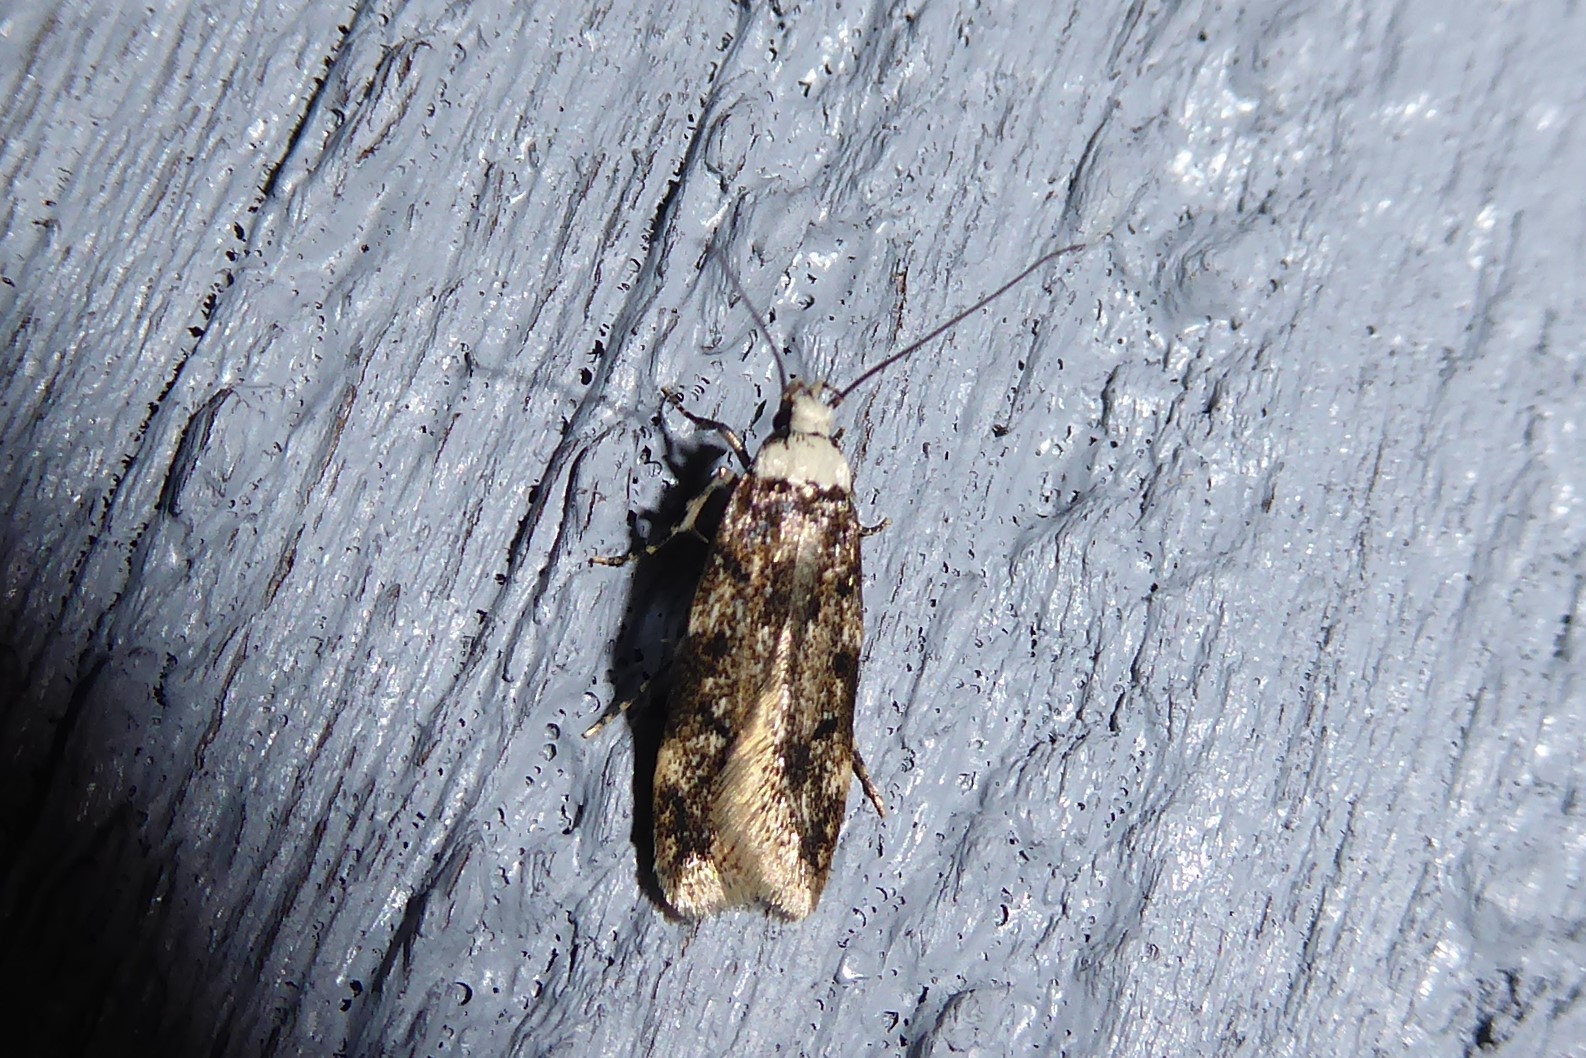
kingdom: Animalia
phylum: Arthropoda
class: Insecta
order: Lepidoptera
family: Oecophoridae
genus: Endrosis
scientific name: Endrosis sarcitrella
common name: White-shouldered house moth
